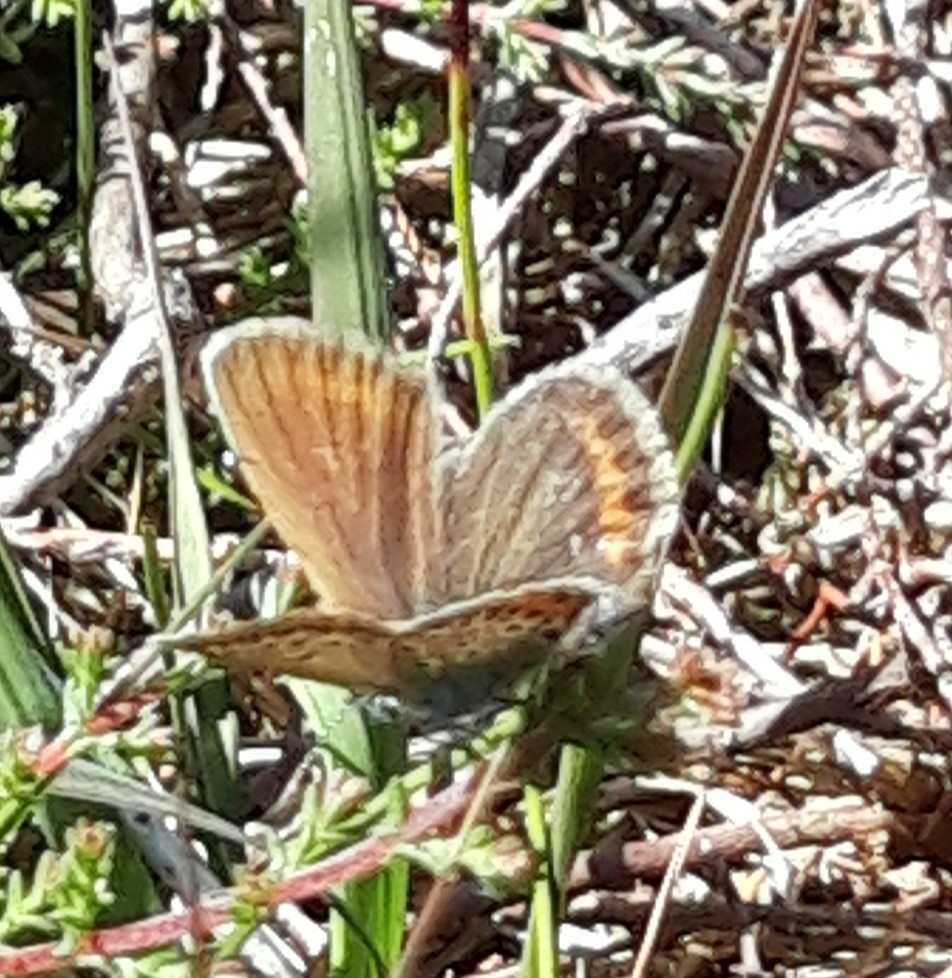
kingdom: Animalia
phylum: Arthropoda
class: Insecta
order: Lepidoptera
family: Lycaenidae
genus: Plebejus
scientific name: Plebejus argus
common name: Silver-studded blue
